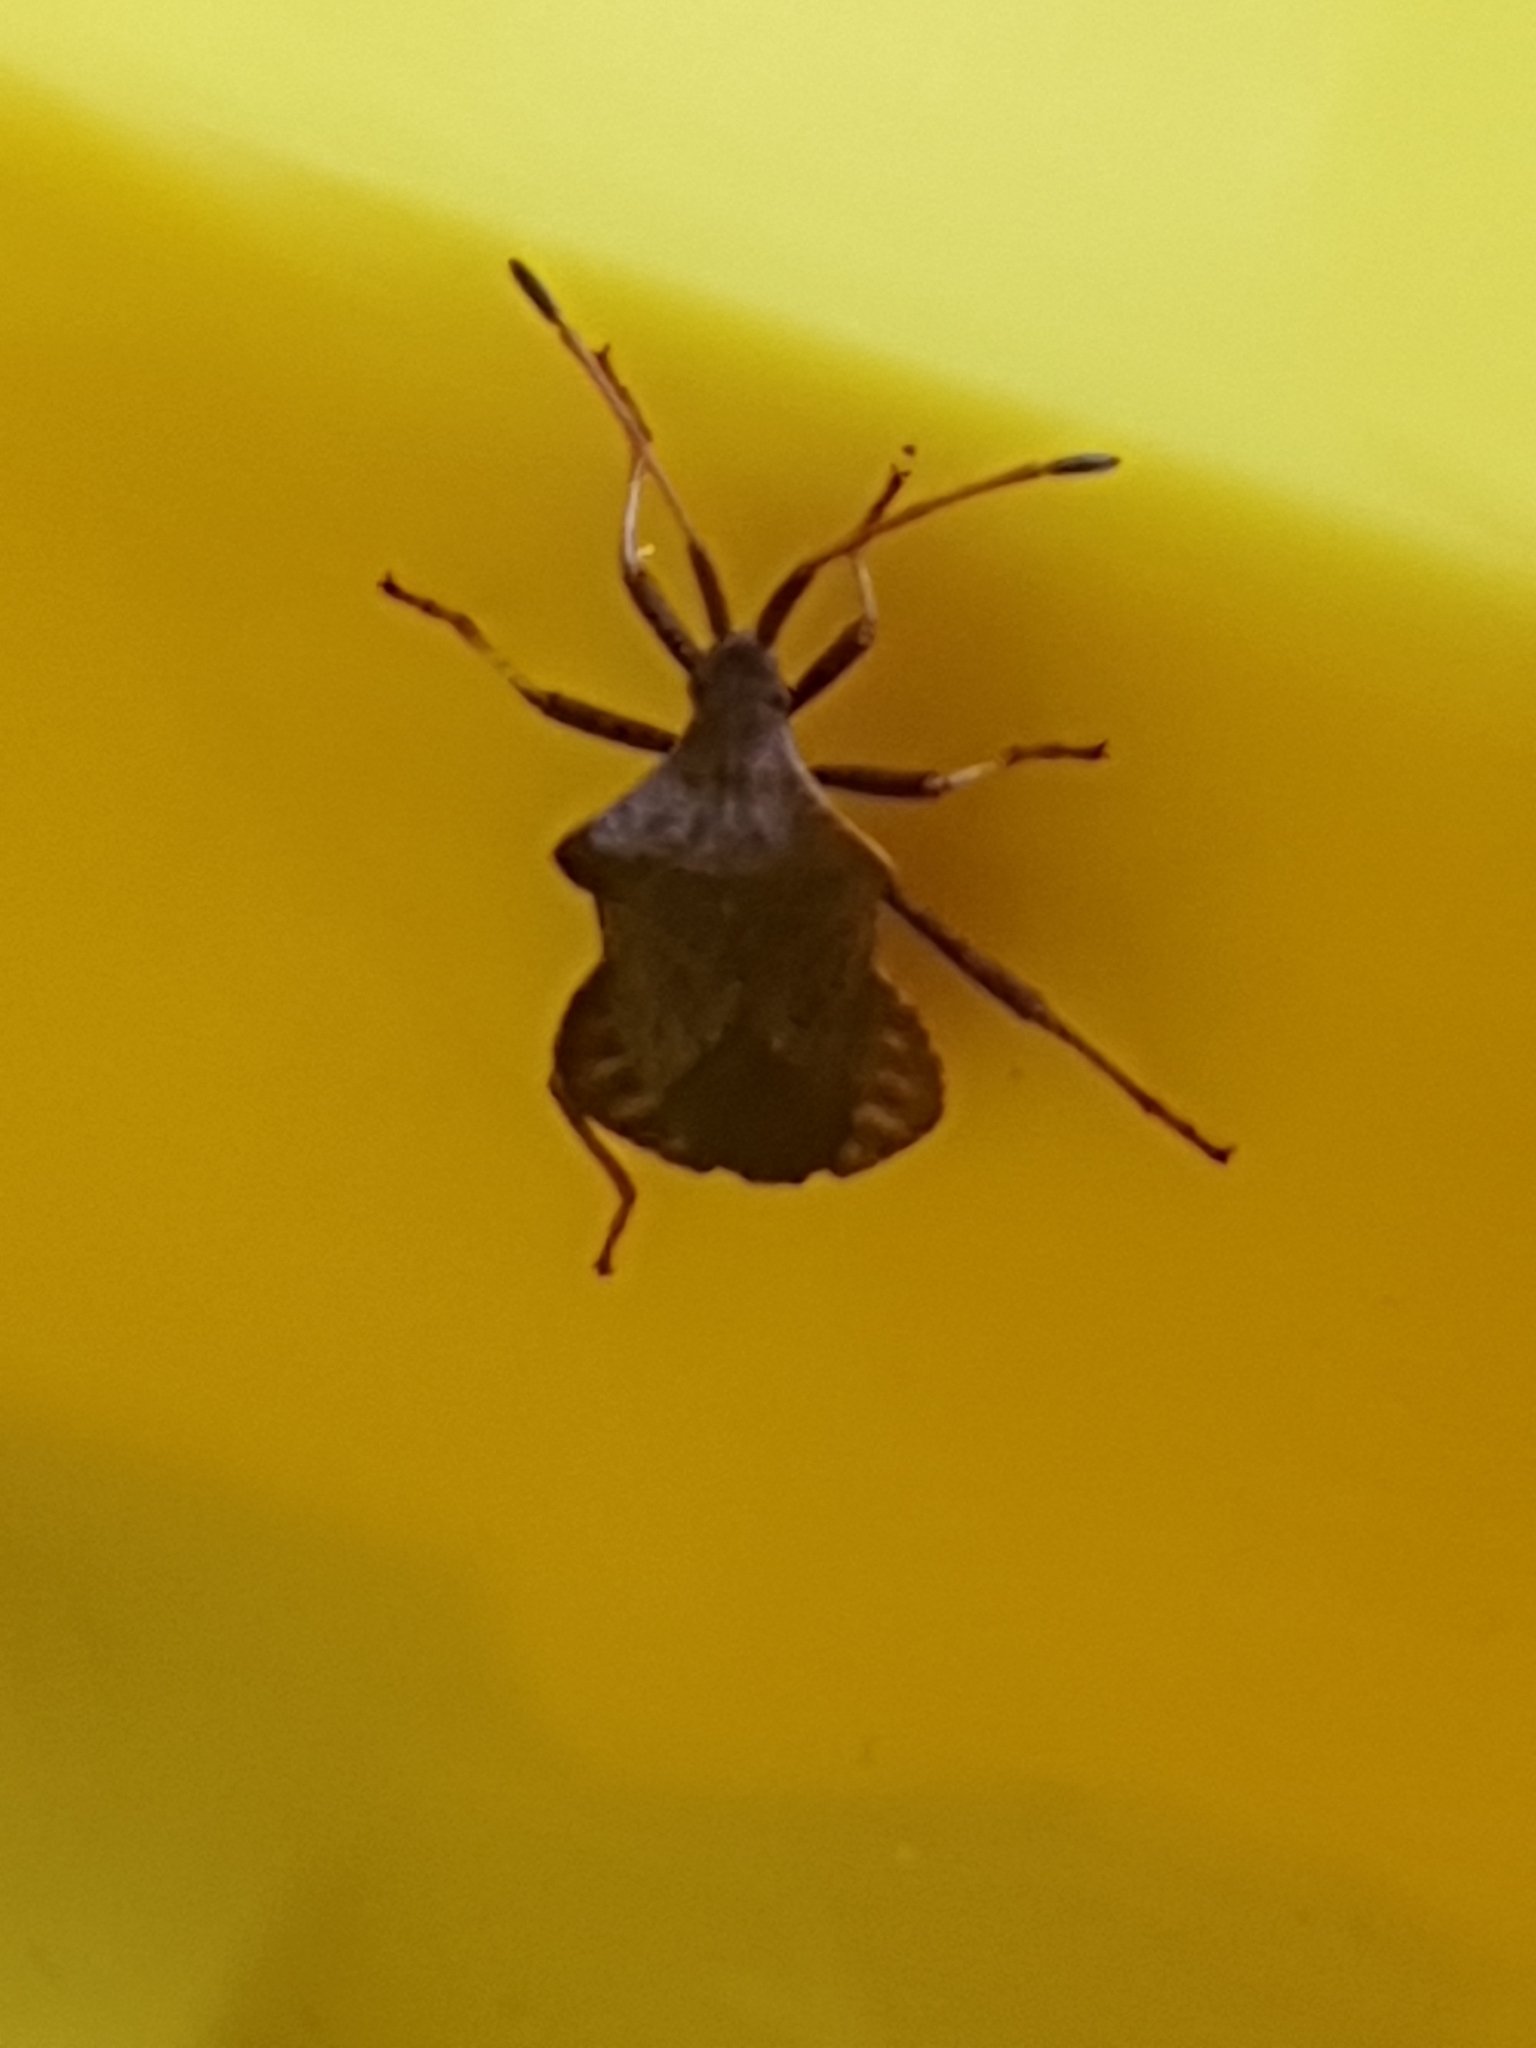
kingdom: Animalia
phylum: Arthropoda
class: Insecta
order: Hemiptera
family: Coreidae
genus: Coreus
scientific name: Coreus marginatus
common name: Dock bug
